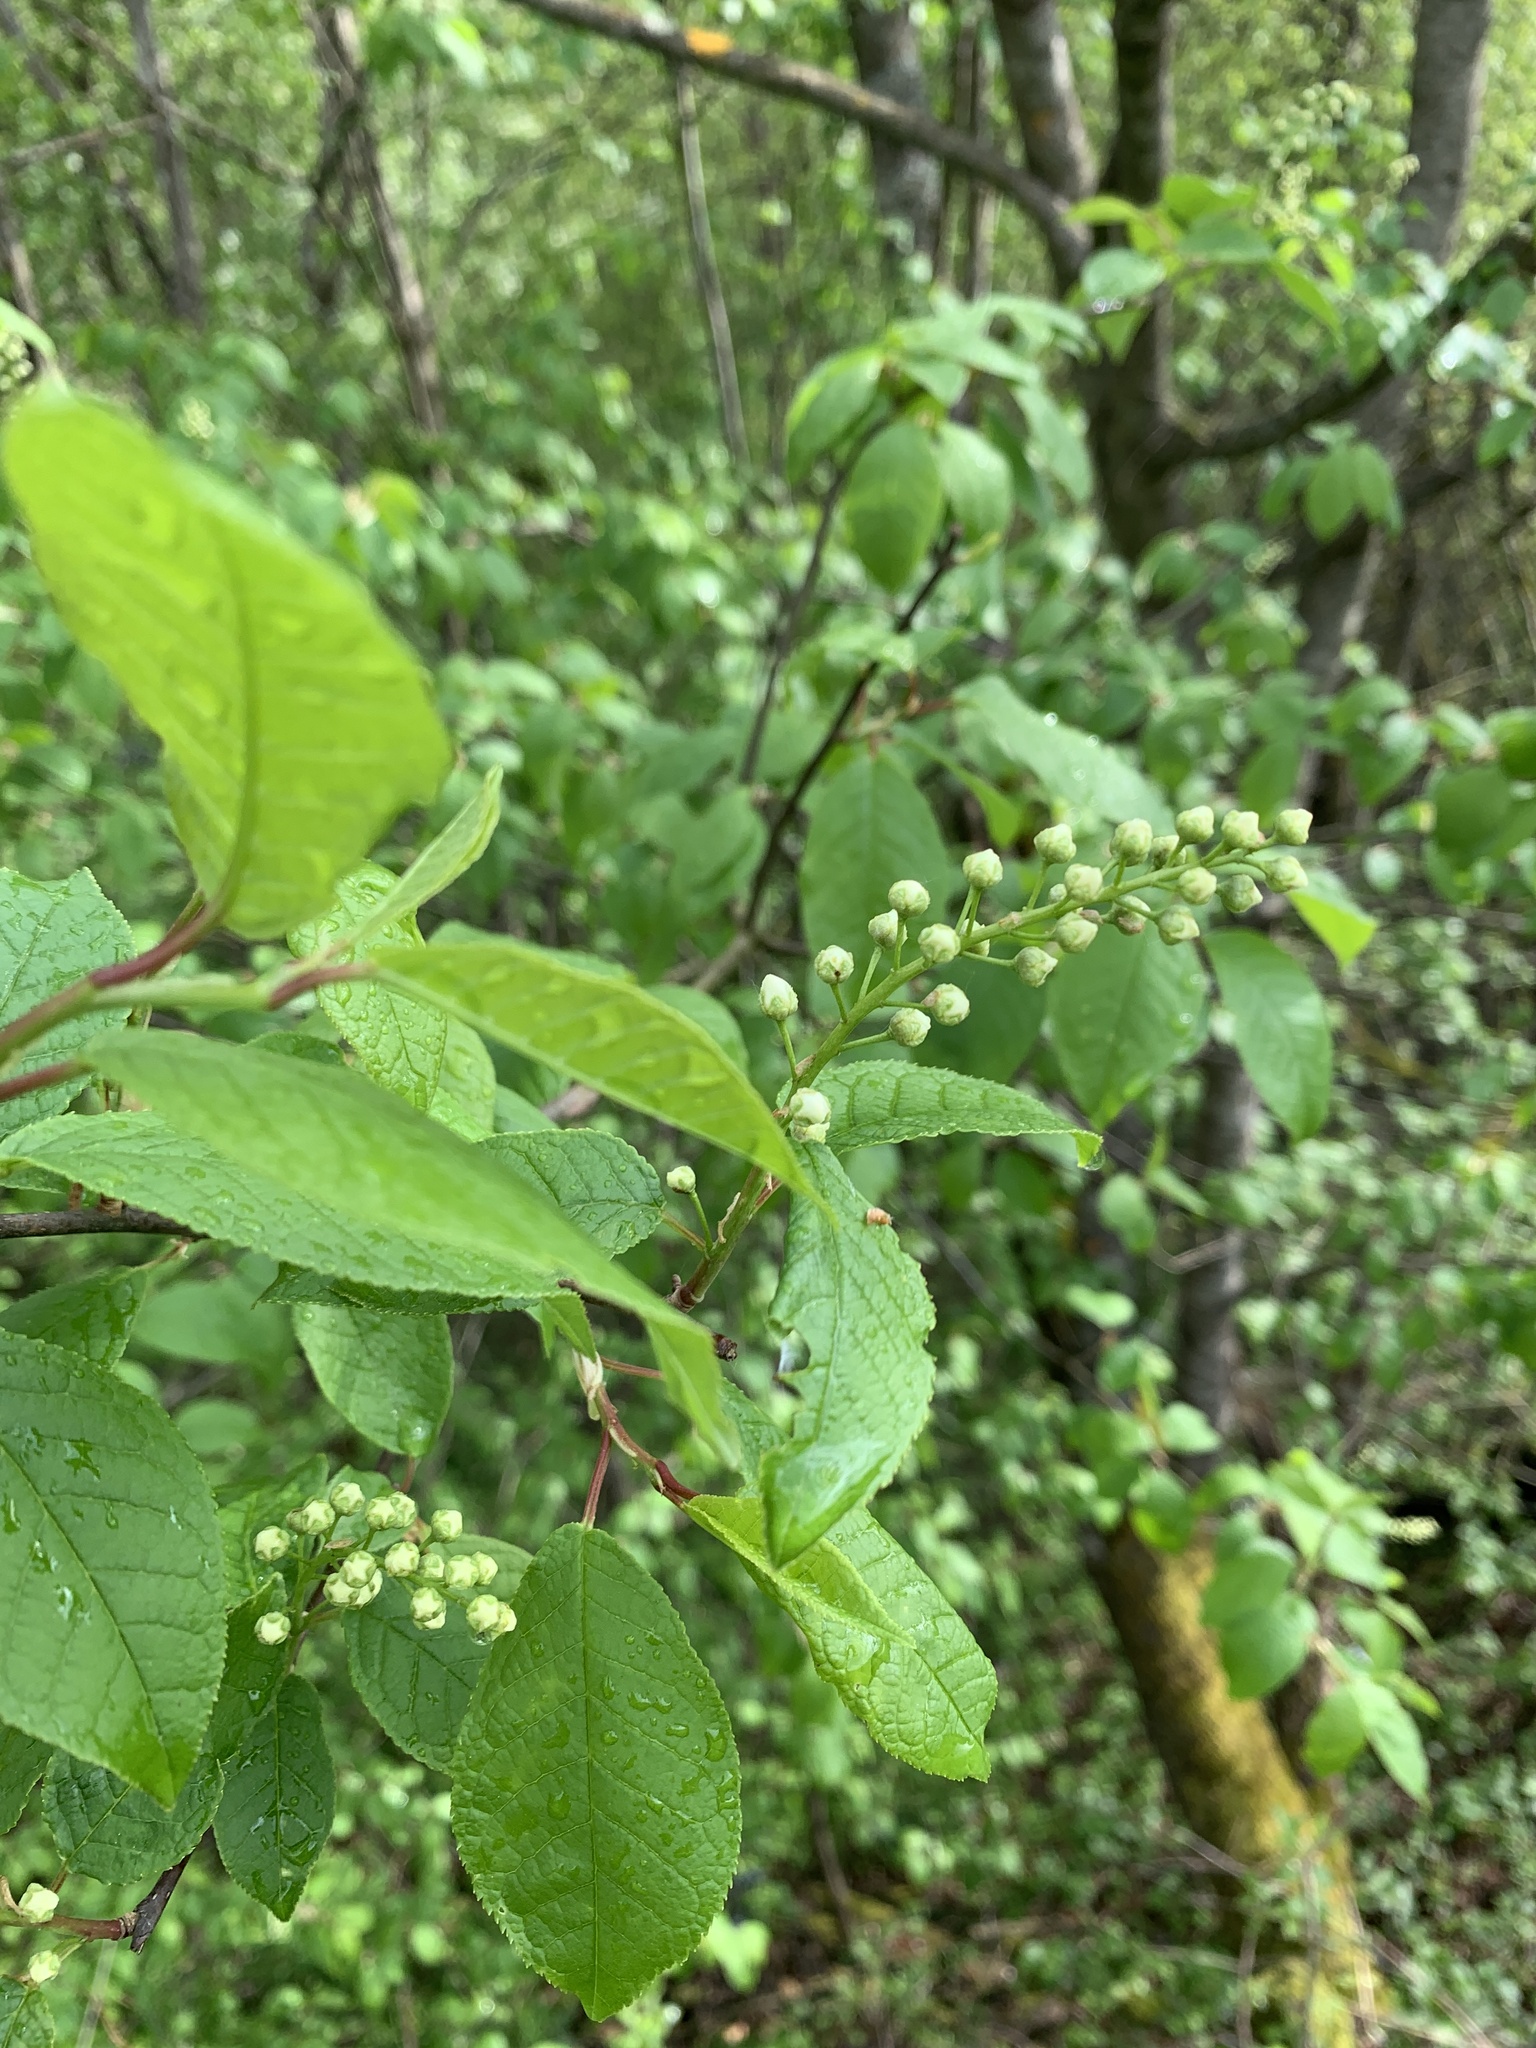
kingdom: Plantae
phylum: Tracheophyta
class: Magnoliopsida
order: Rosales
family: Rosaceae
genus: Prunus
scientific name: Prunus padus
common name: Bird cherry
